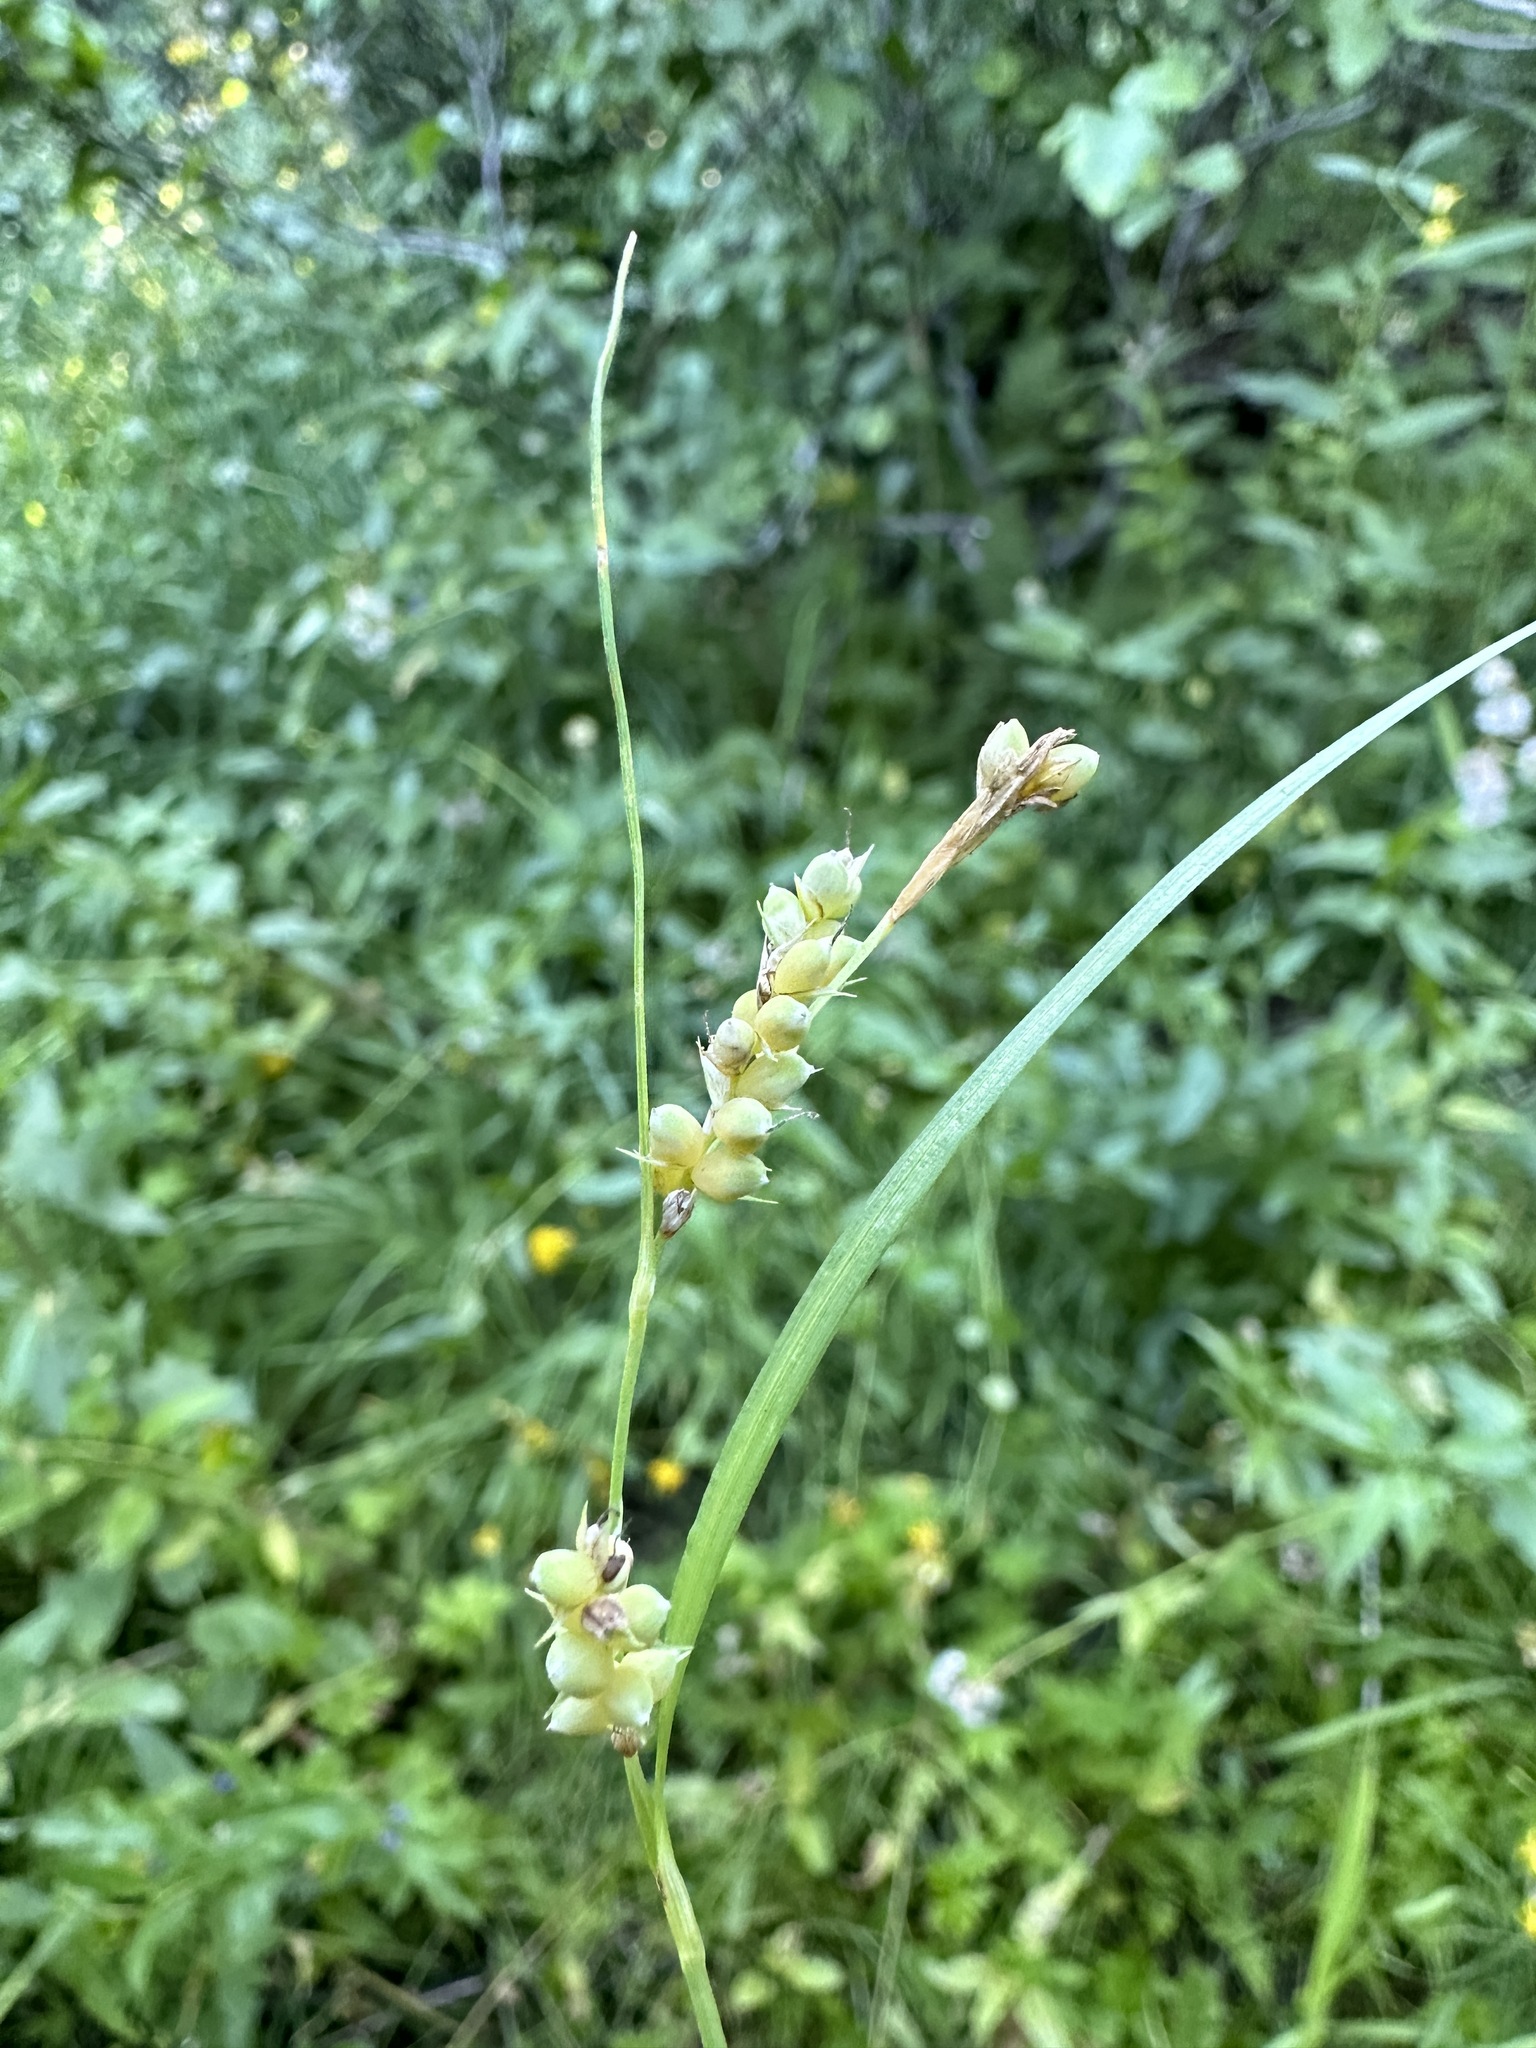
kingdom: Plantae
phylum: Tracheophyta
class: Liliopsida
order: Poales
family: Cyperaceae
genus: Carex
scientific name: Carex aurea
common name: Golden sedge
